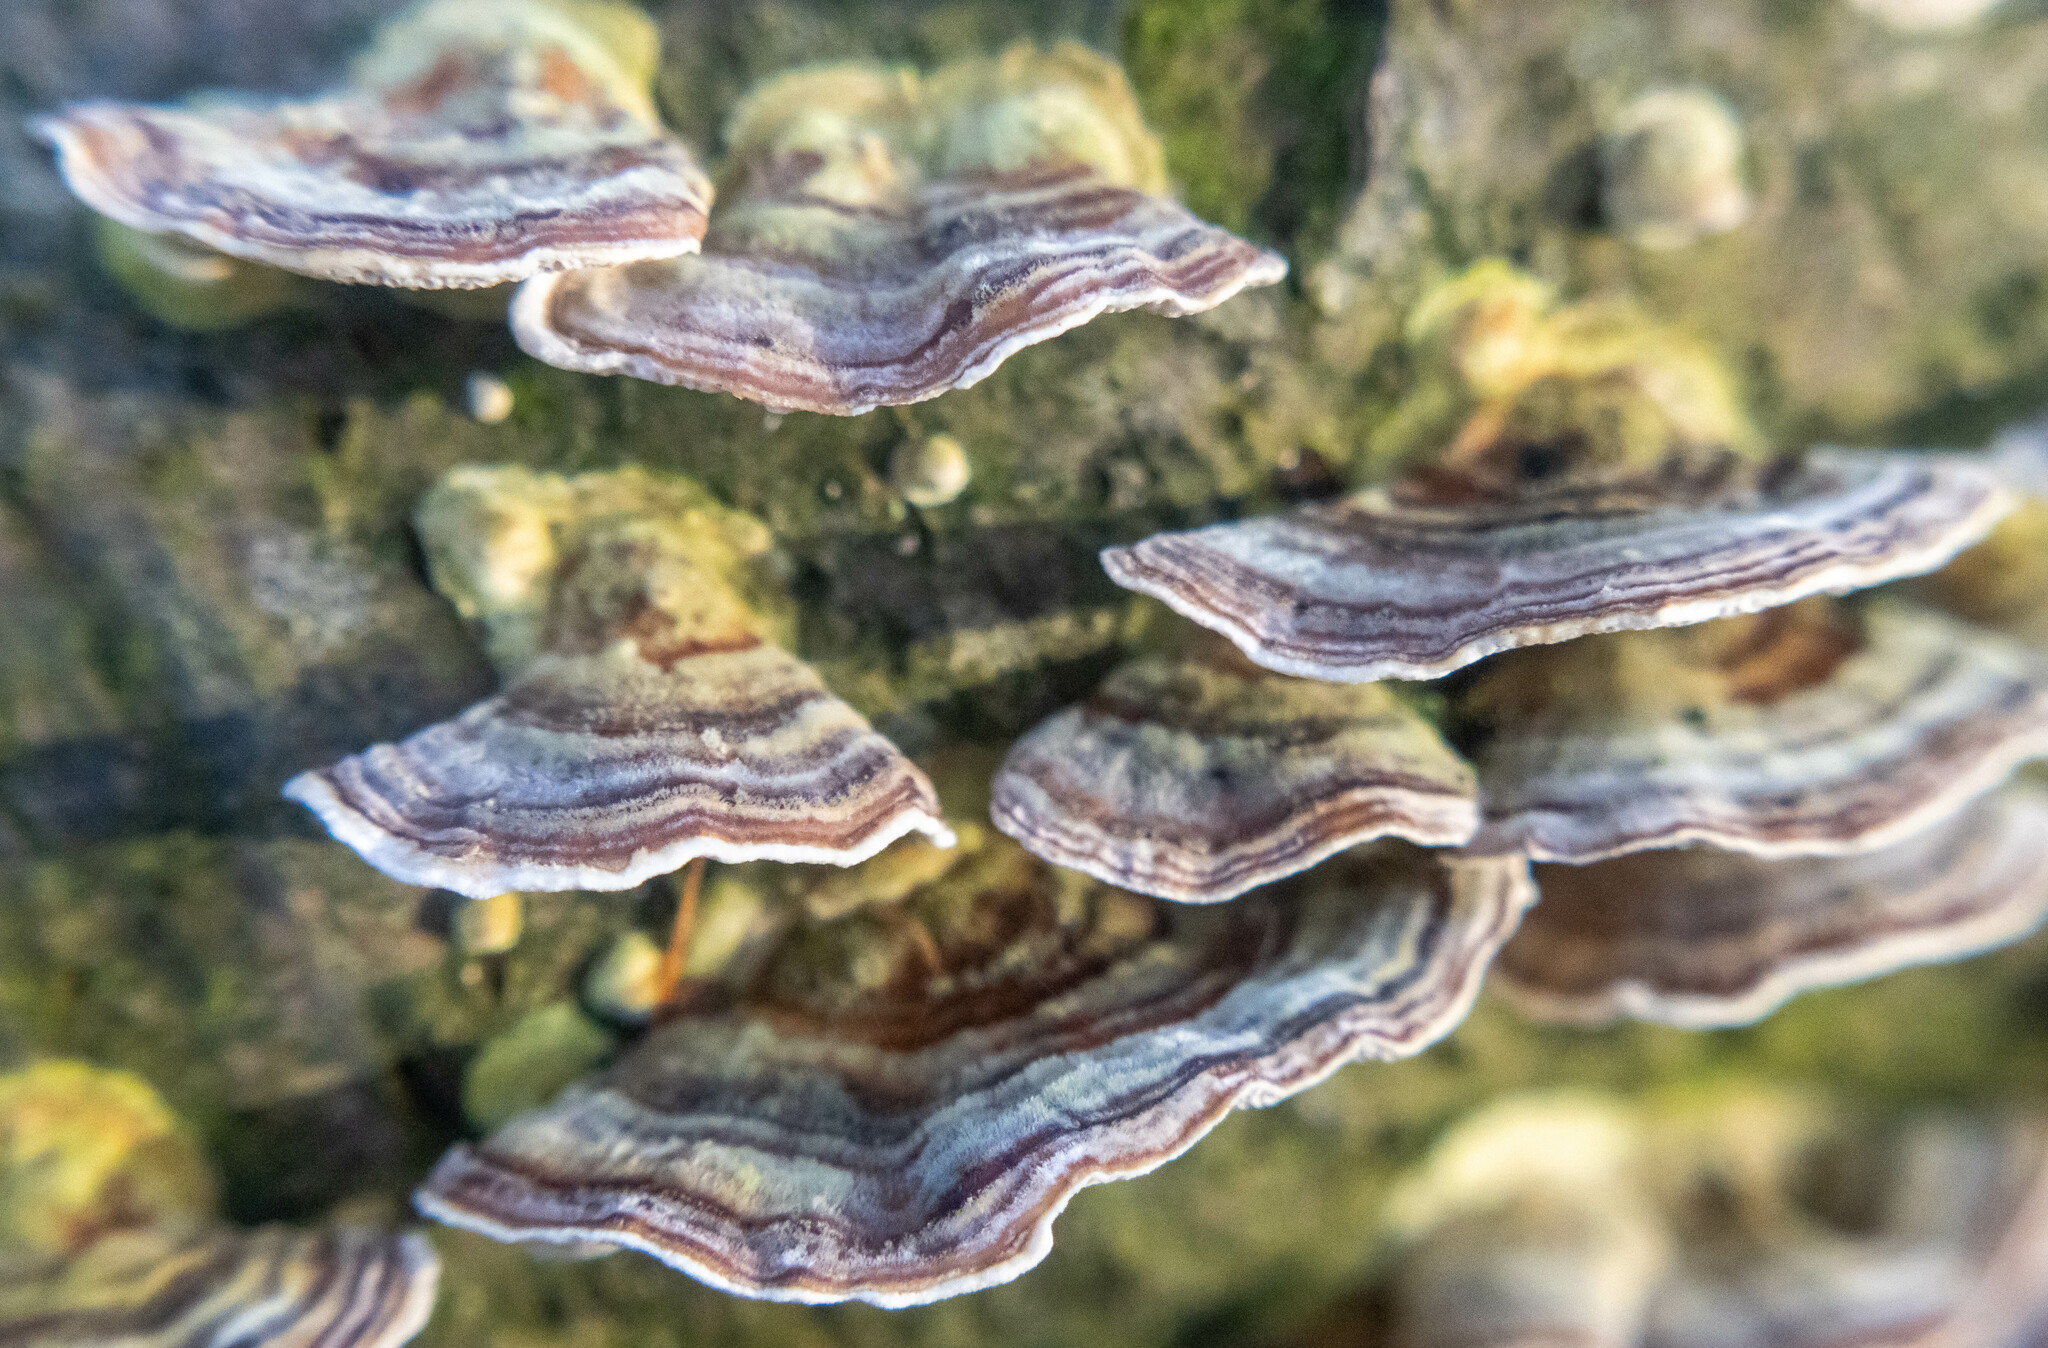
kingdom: Fungi
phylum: Basidiomycota
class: Agaricomycetes
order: Polyporales
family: Polyporaceae
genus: Trametes
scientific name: Trametes versicolor
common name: Turkeytail
